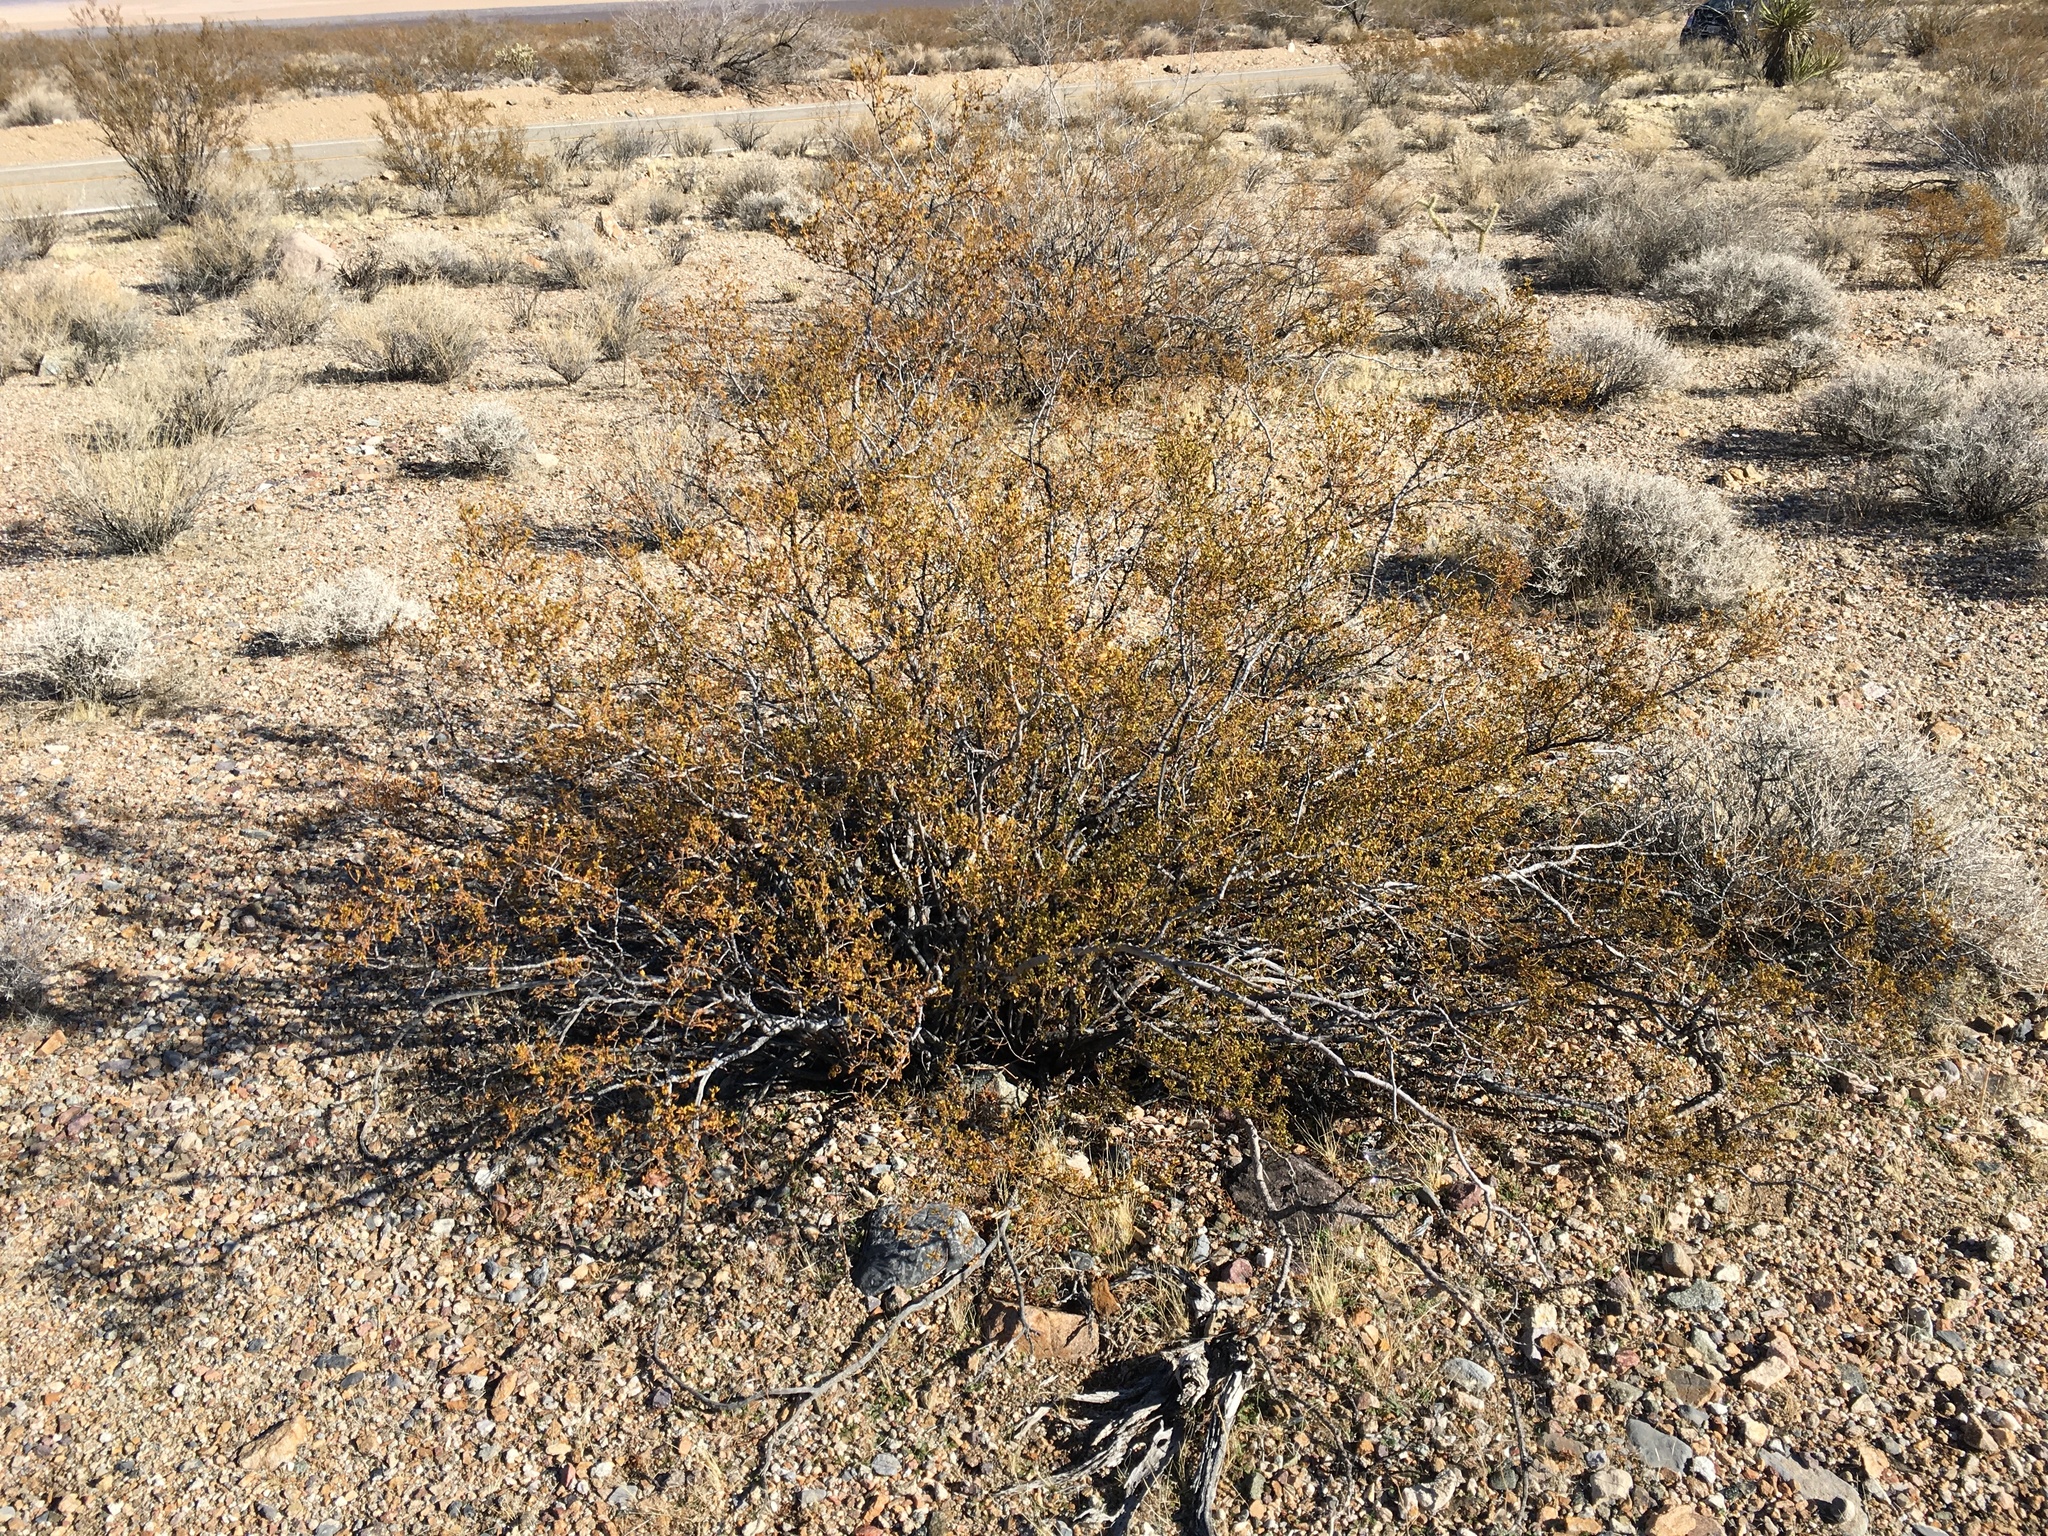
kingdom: Plantae
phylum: Tracheophyta
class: Magnoliopsida
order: Zygophyllales
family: Zygophyllaceae
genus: Larrea
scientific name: Larrea tridentata
